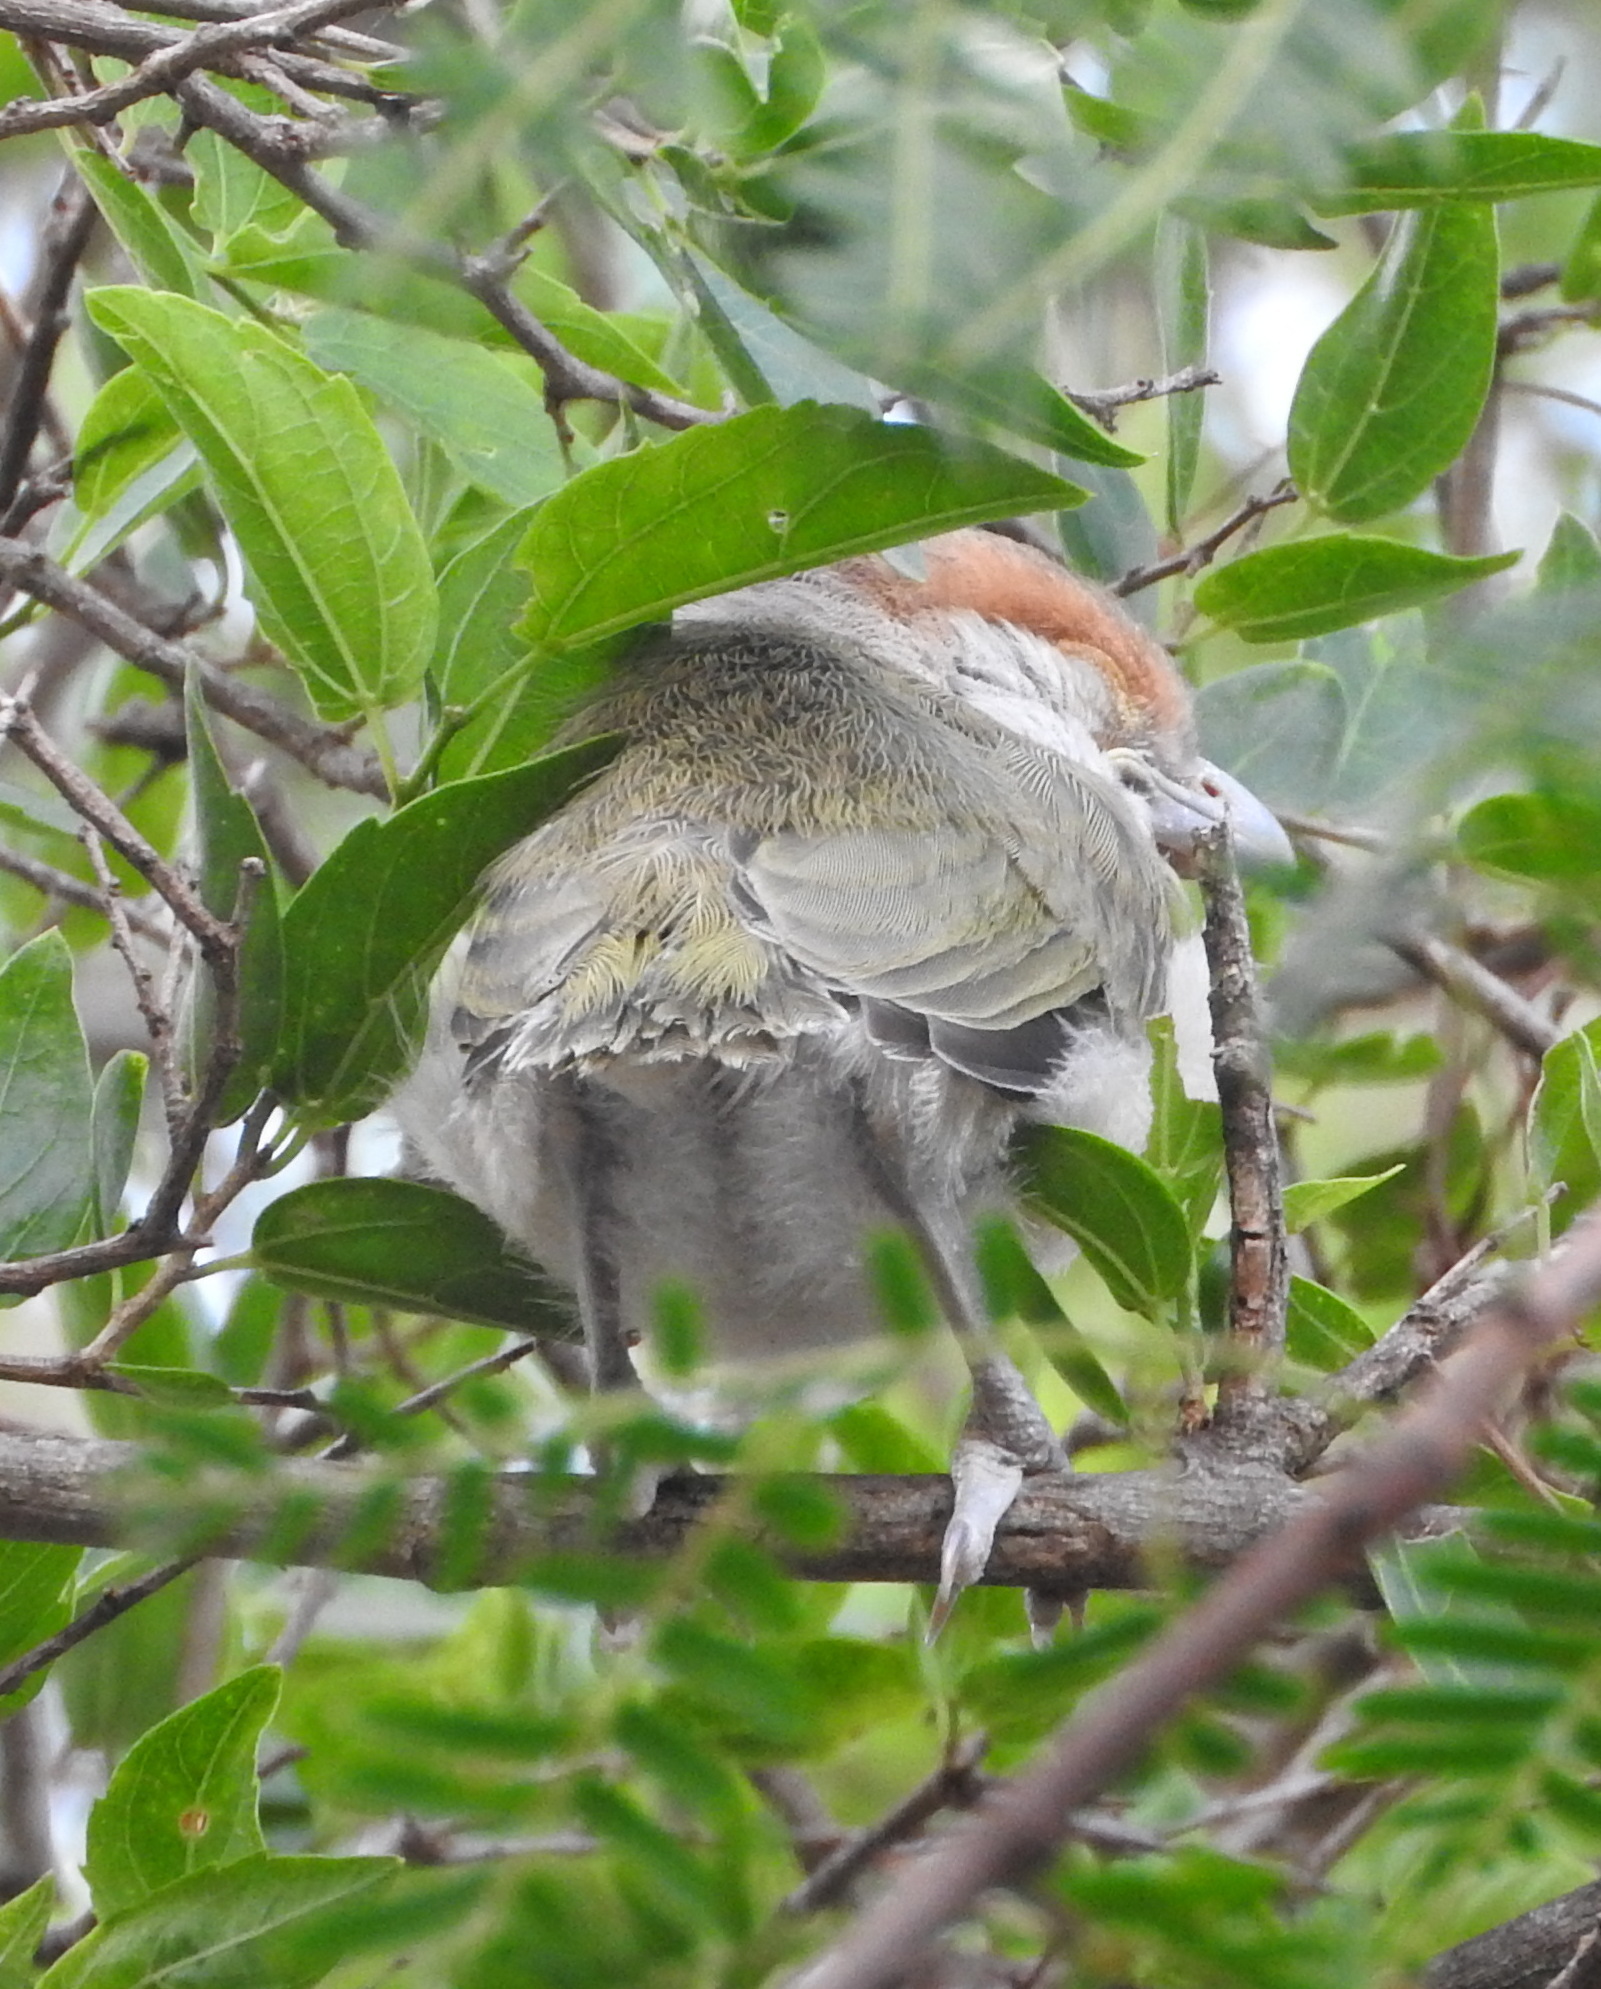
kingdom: Animalia
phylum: Chordata
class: Aves
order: Passeriformes
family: Vireonidae
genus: Cyclarhis
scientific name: Cyclarhis gujanensis
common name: Rufous-browed peppershrike
